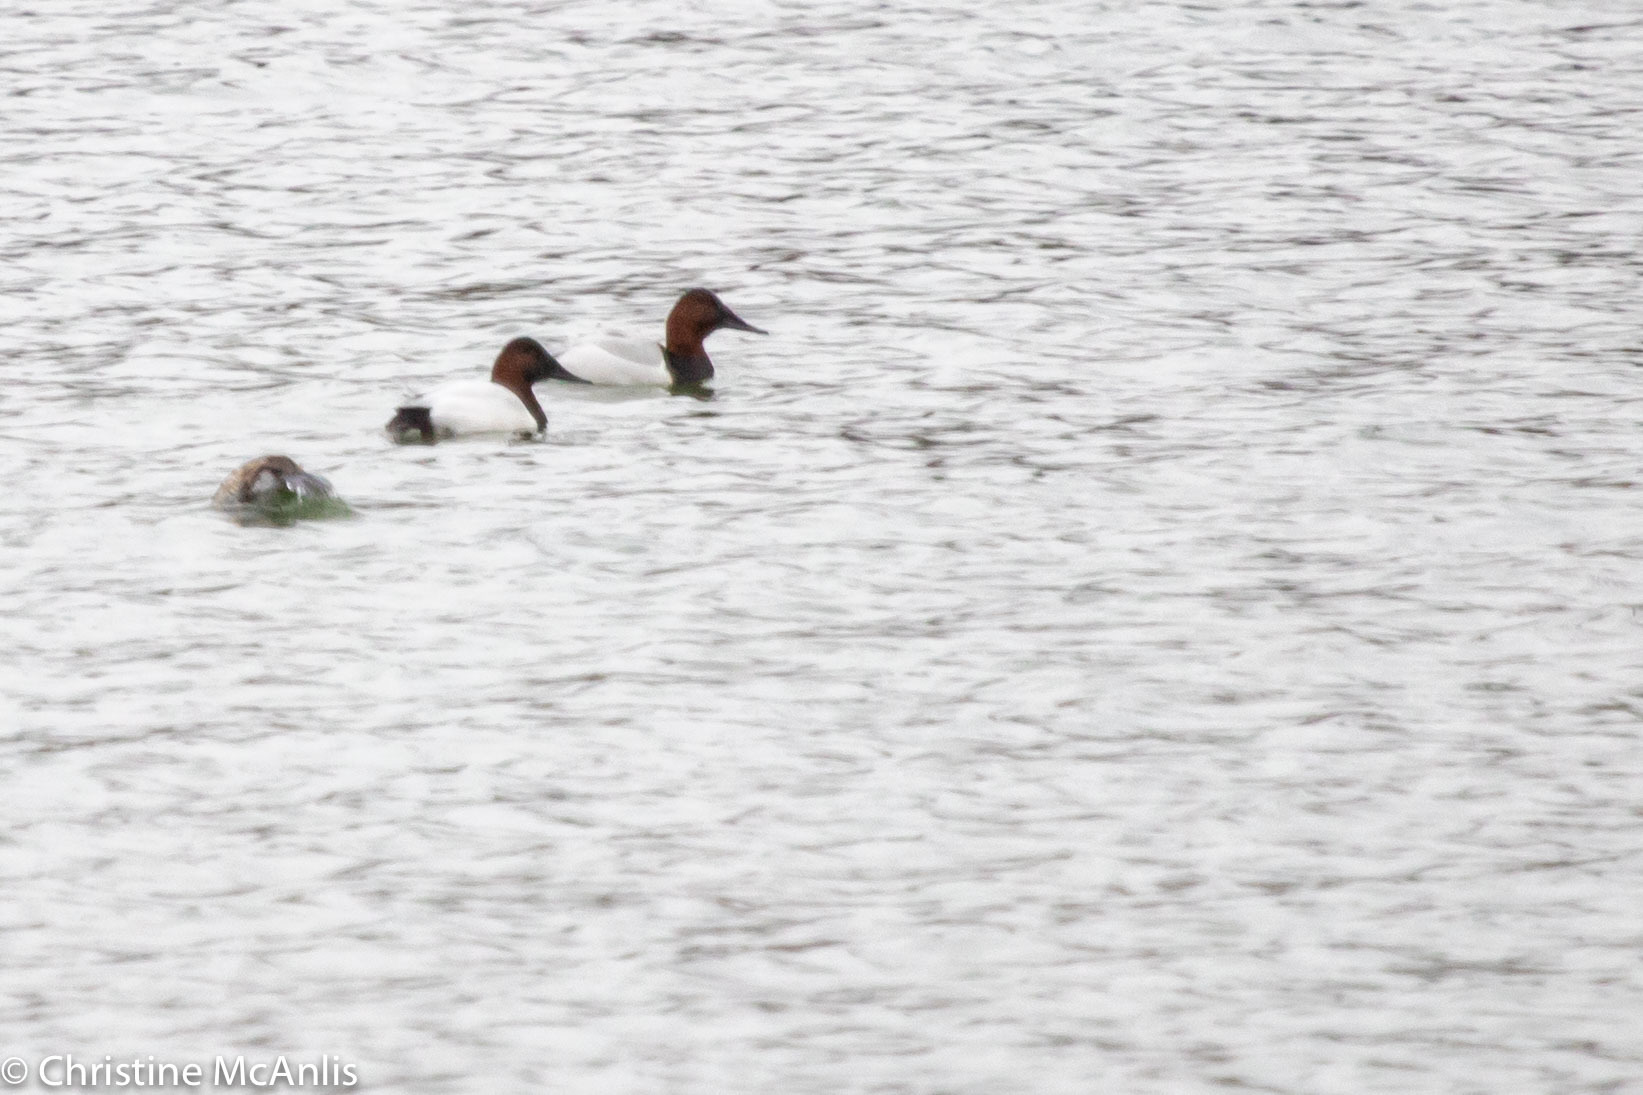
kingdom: Animalia
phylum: Chordata
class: Aves
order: Anseriformes
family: Anatidae
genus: Aythya
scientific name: Aythya valisineria
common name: Canvasback
